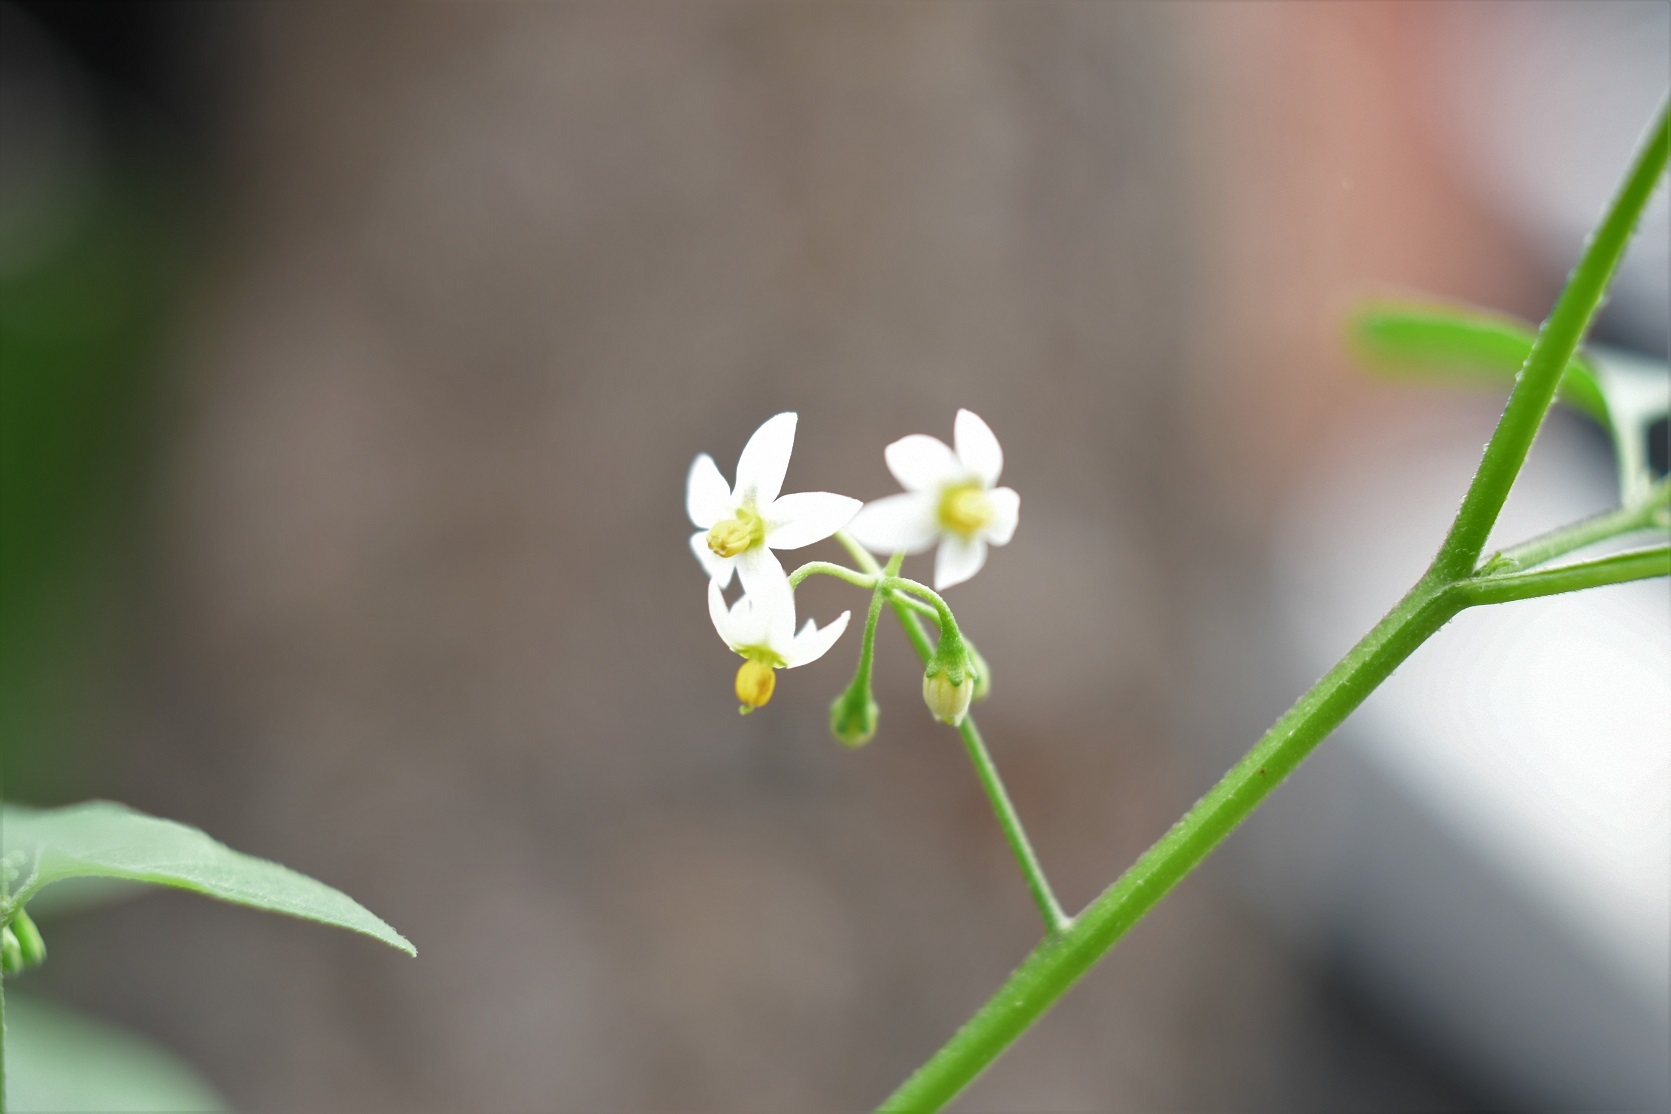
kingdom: Plantae
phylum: Tracheophyta
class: Magnoliopsida
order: Solanales
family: Solanaceae
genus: Solanum
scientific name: Solanum americanum
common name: American black nightshade
